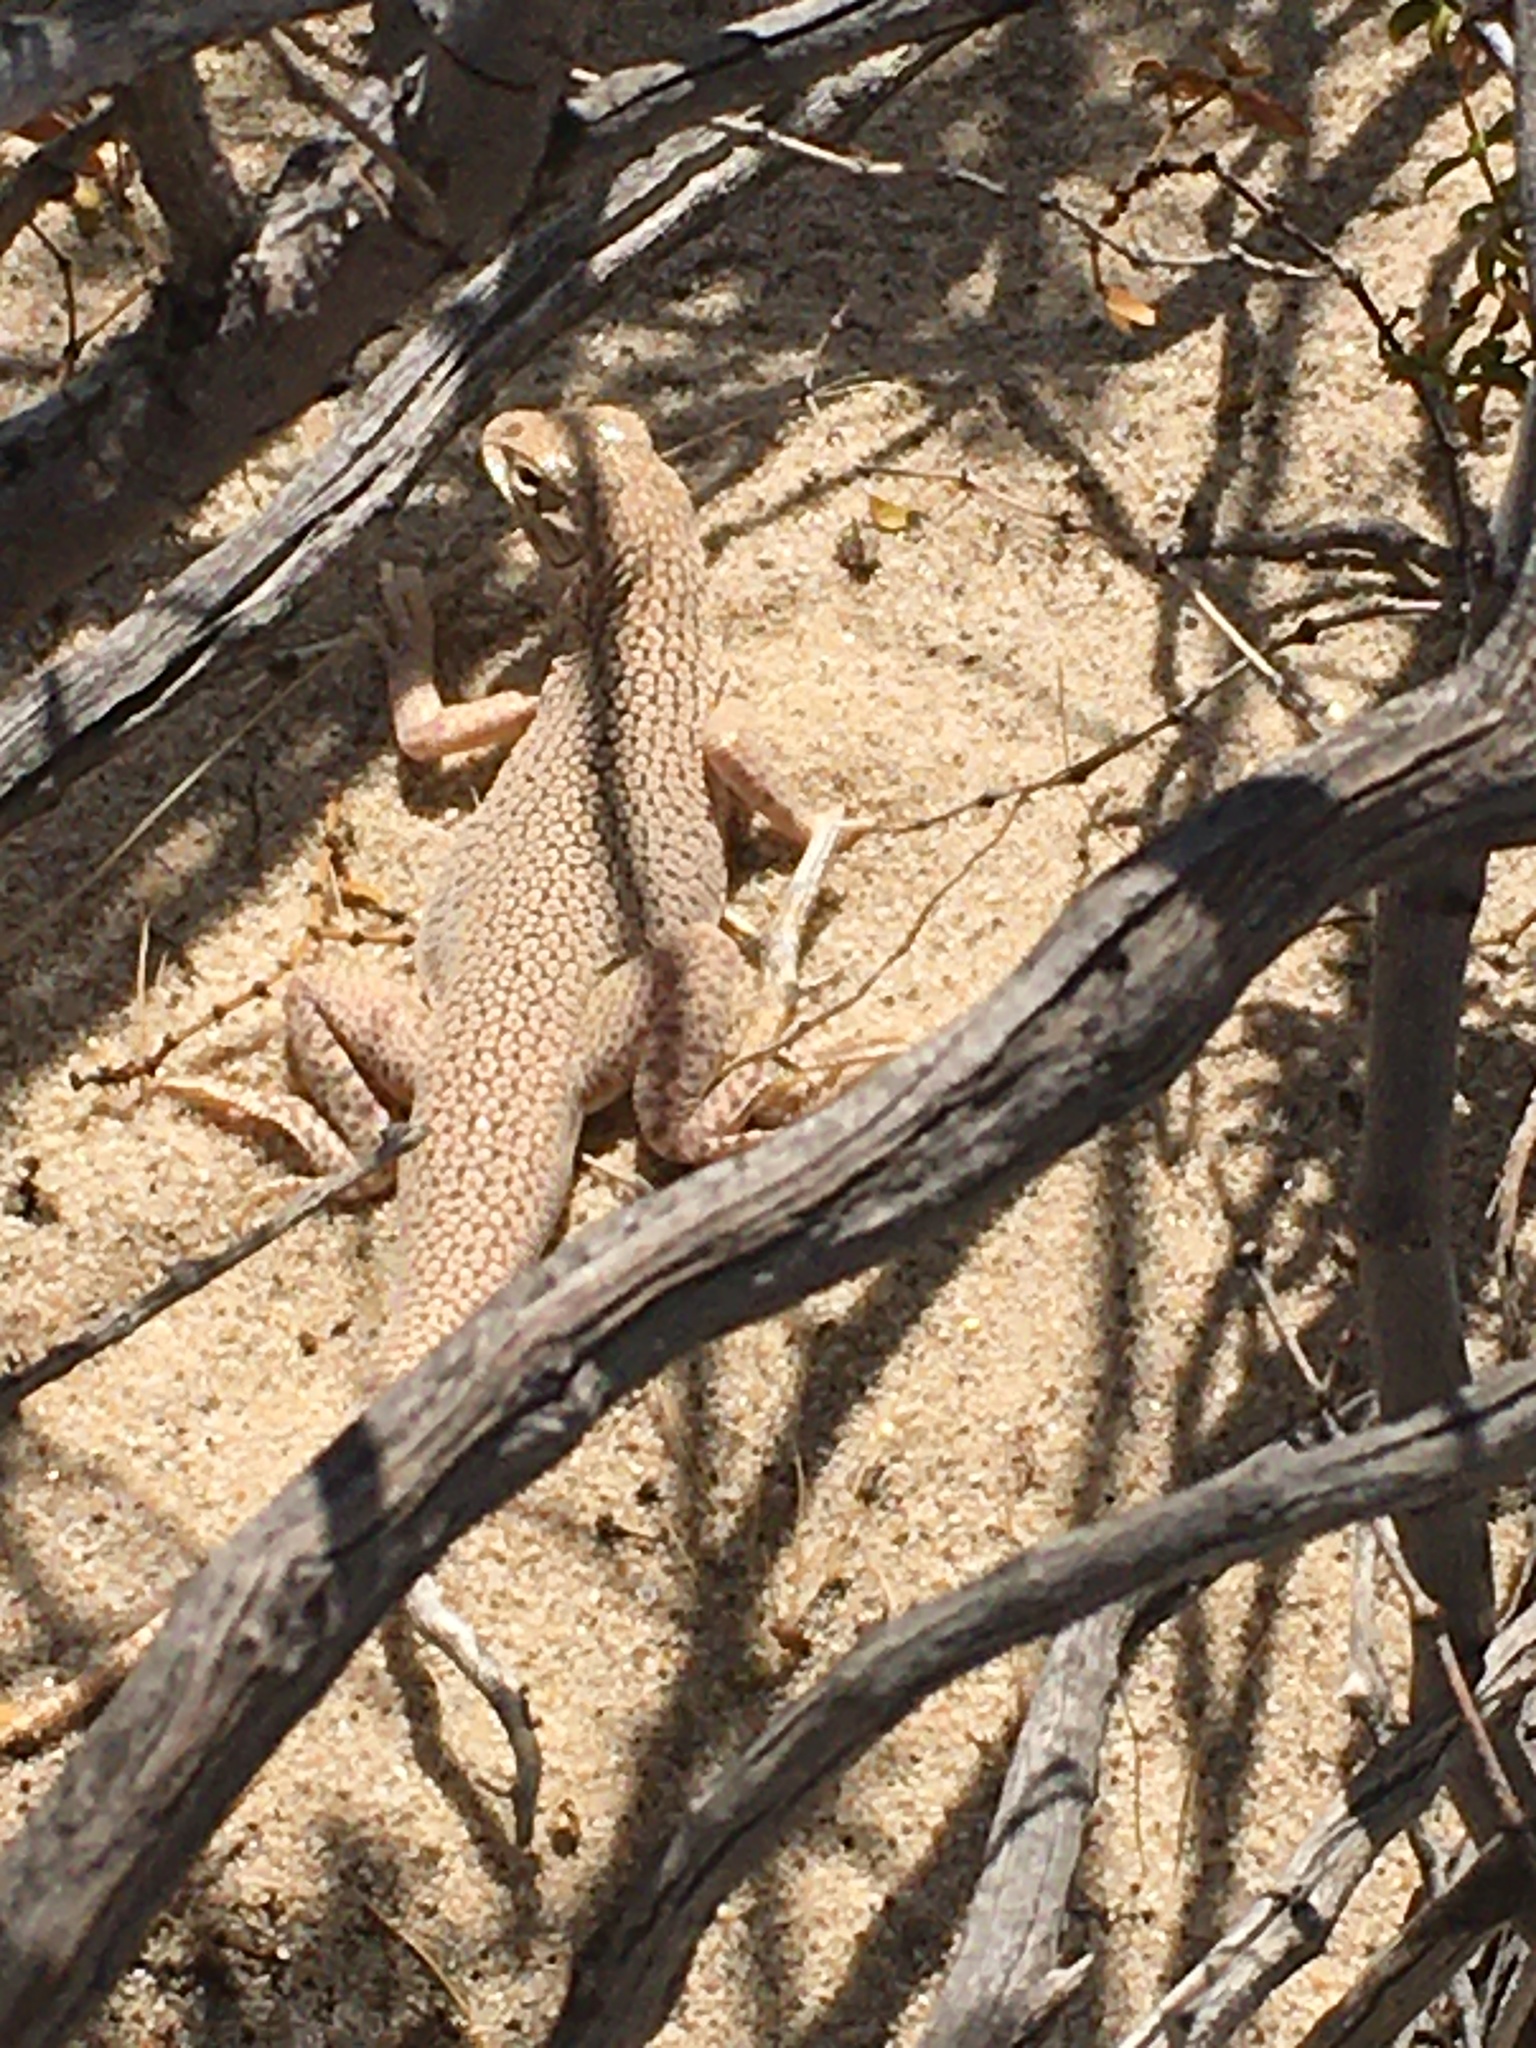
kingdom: Animalia
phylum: Chordata
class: Squamata
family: Phrynosomatidae
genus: Uma
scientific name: Uma notata
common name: Colorado desert fringe-toed lizard
